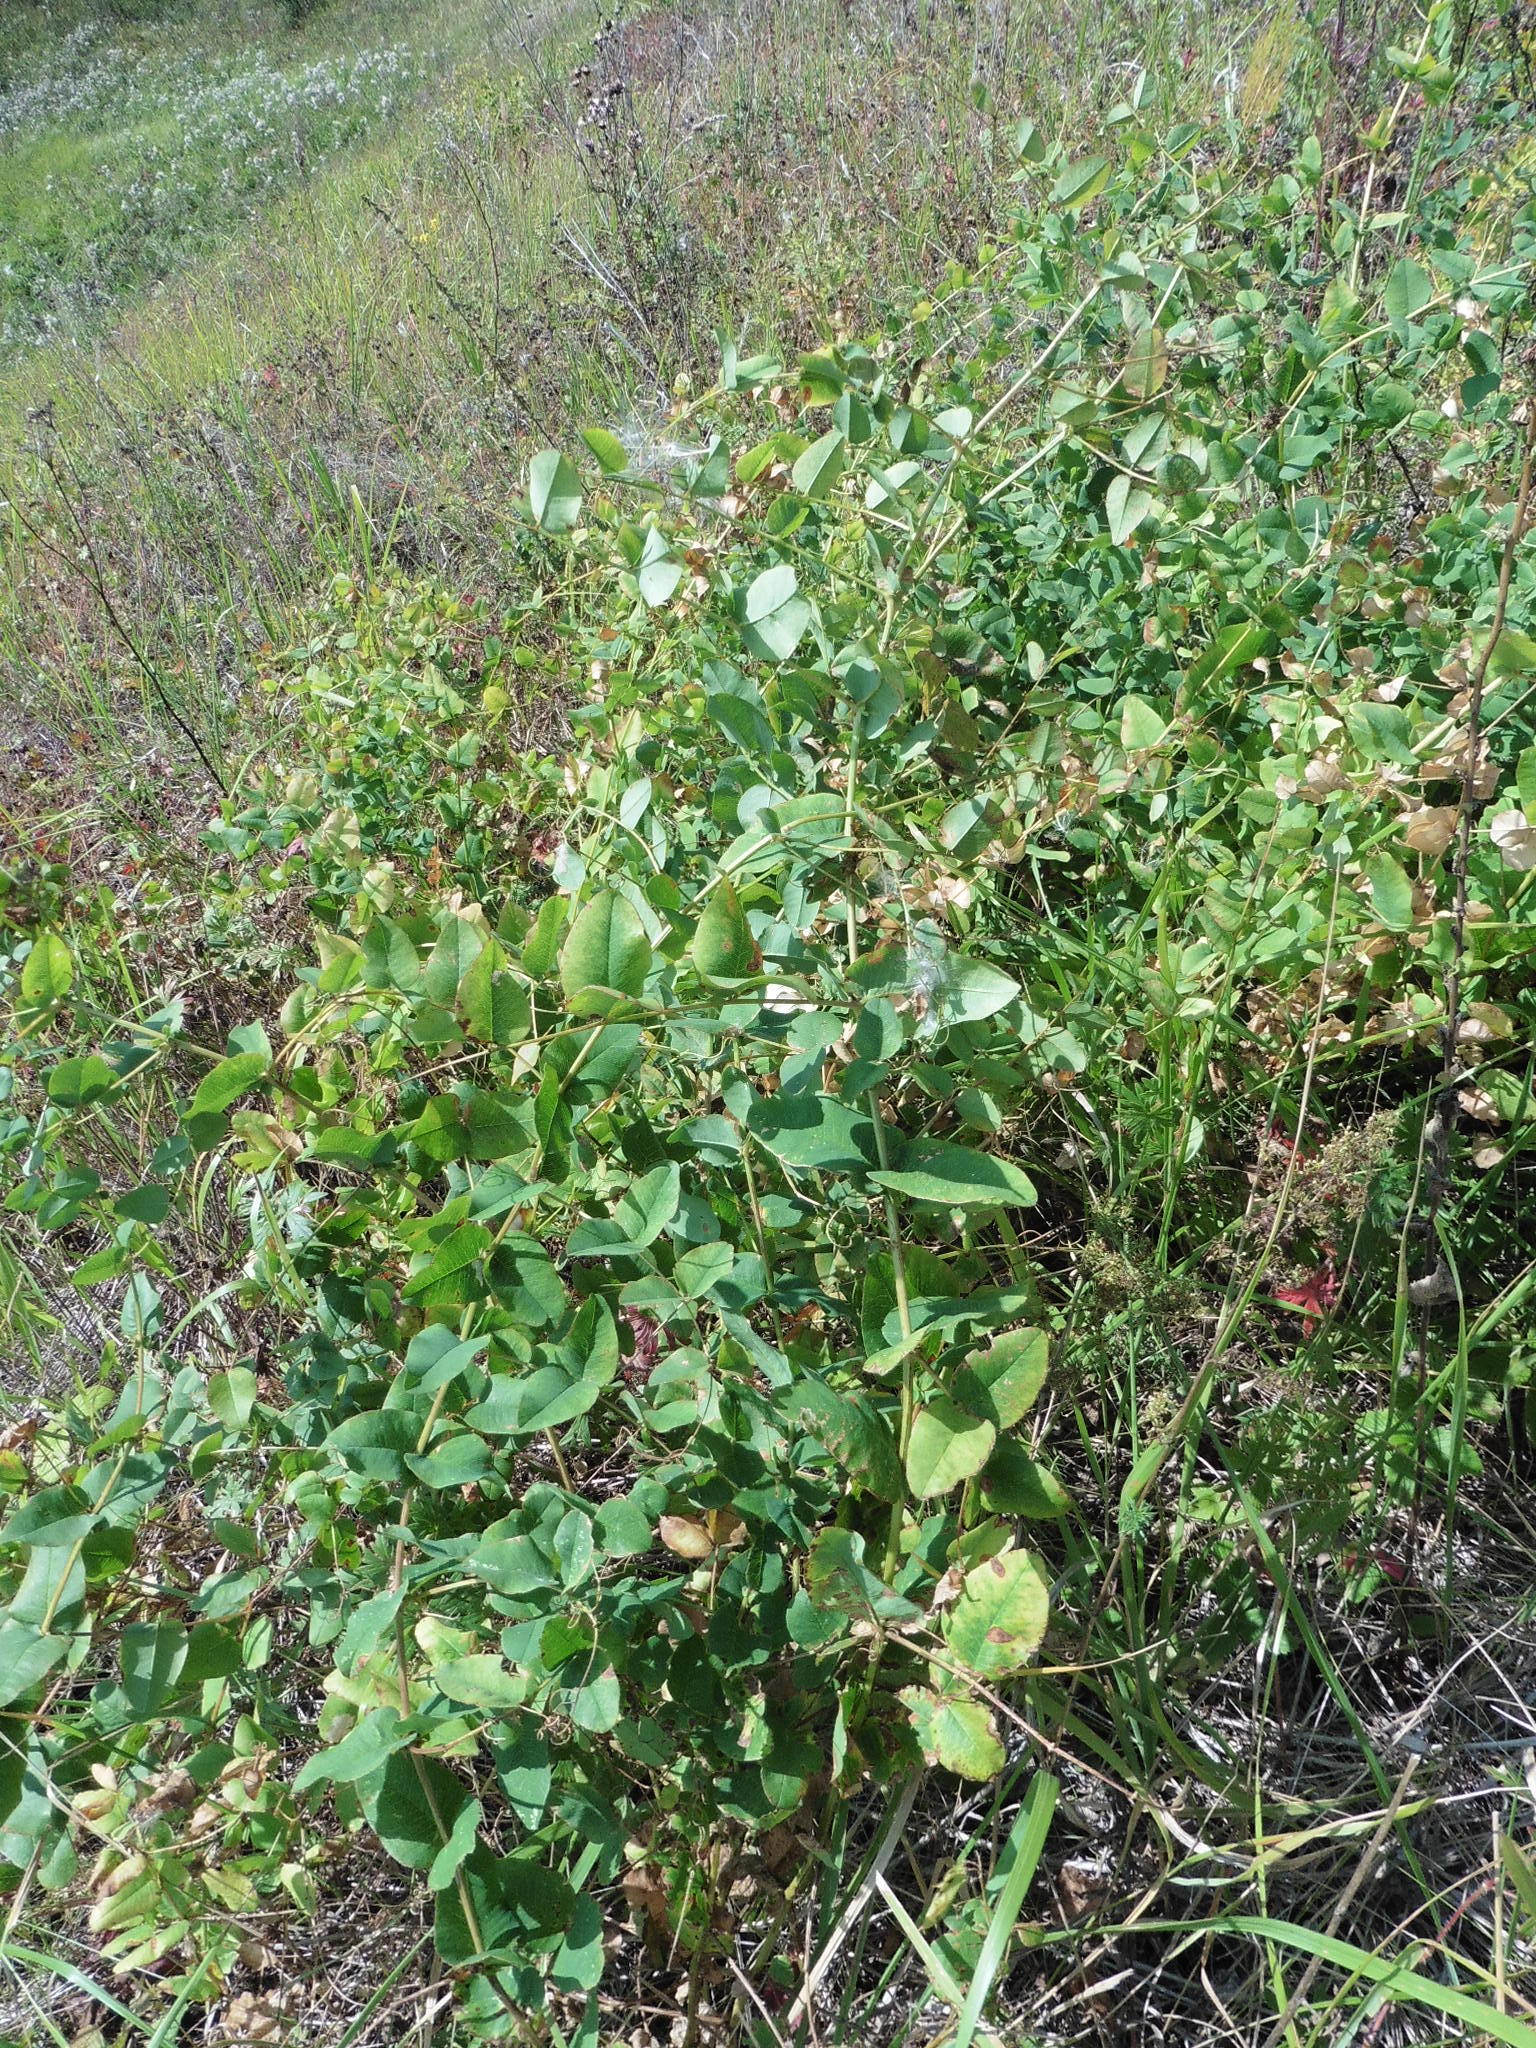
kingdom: Plantae
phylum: Tracheophyta
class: Magnoliopsida
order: Fabales
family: Fabaceae
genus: Vicia
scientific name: Vicia pisiformis
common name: Pale-flower vetch
